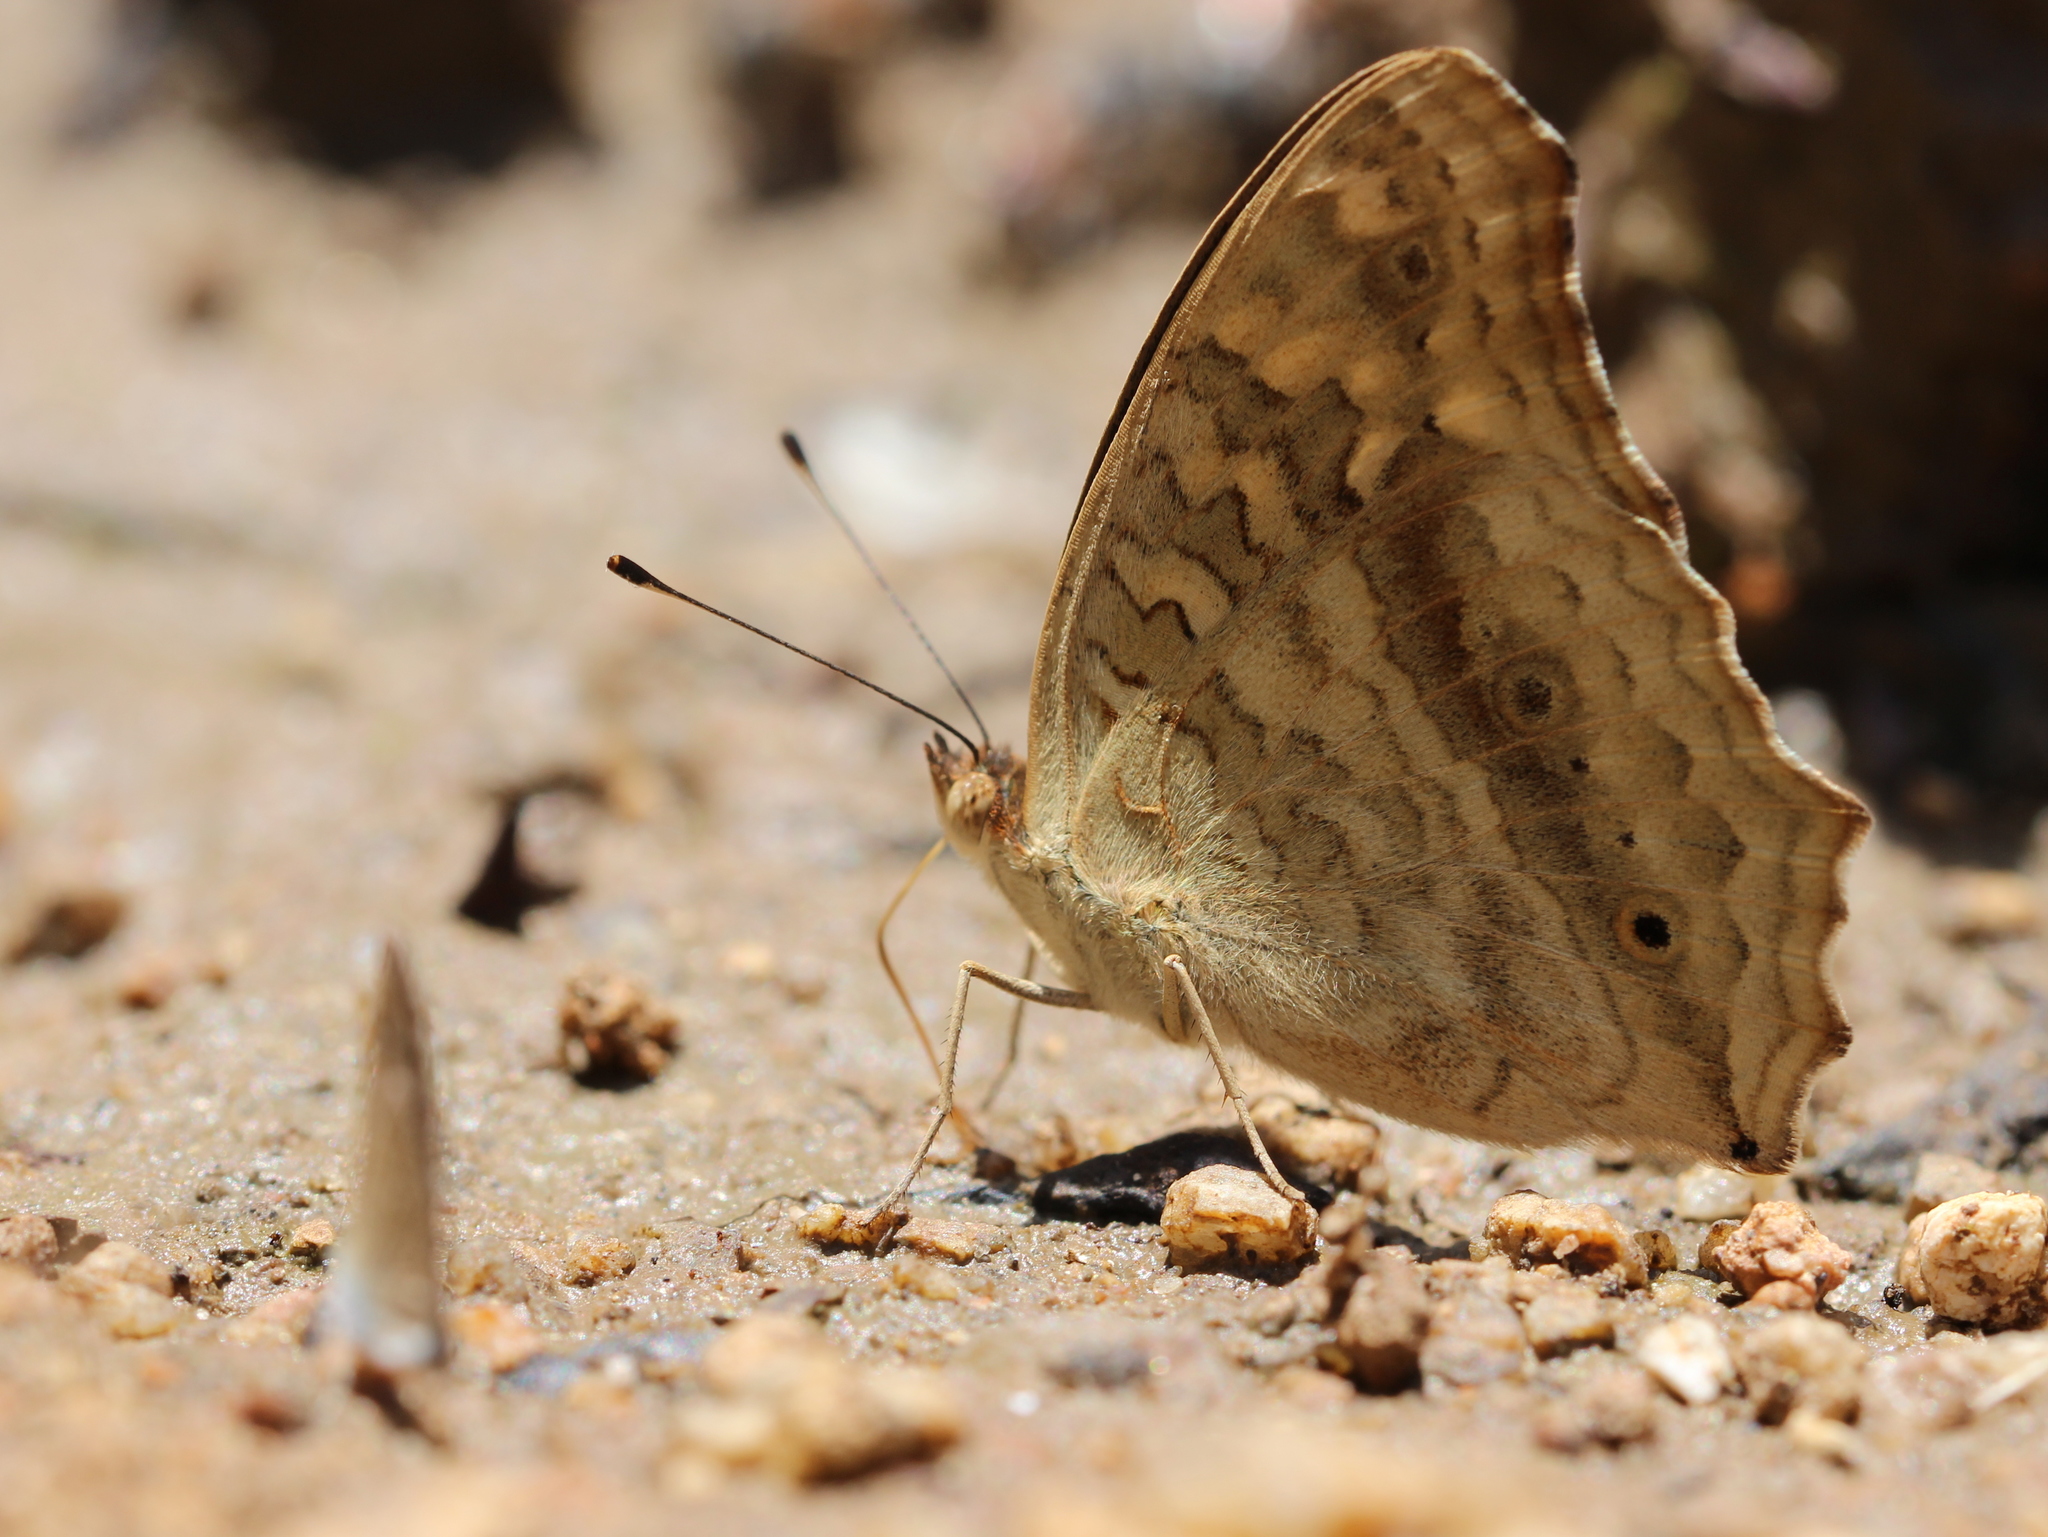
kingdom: Animalia
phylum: Arthropoda
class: Insecta
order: Lepidoptera
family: Nymphalidae
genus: Junonia
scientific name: Junonia lemonias
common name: Lemon pansy
